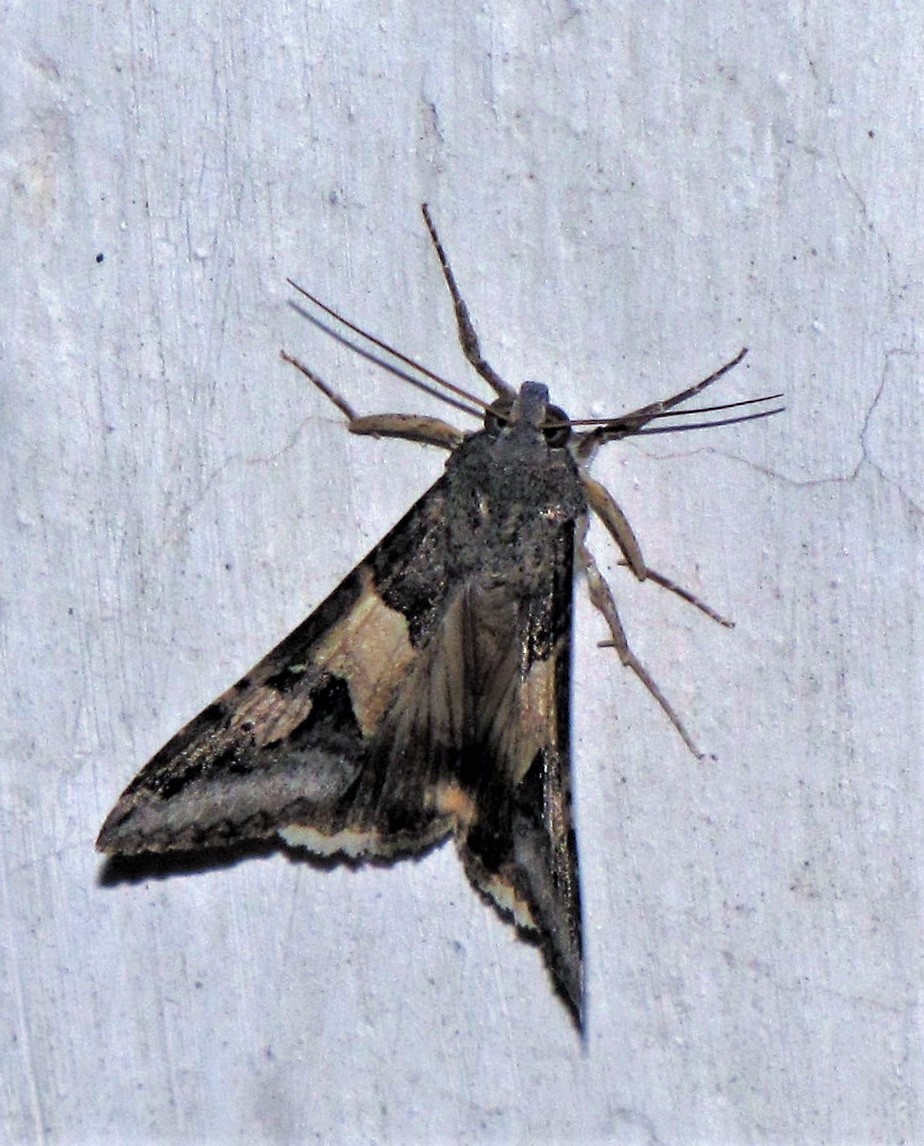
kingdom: Animalia
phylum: Arthropoda
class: Insecta
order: Lepidoptera
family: Erebidae
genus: Melipotis
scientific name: Melipotis ochrodes
